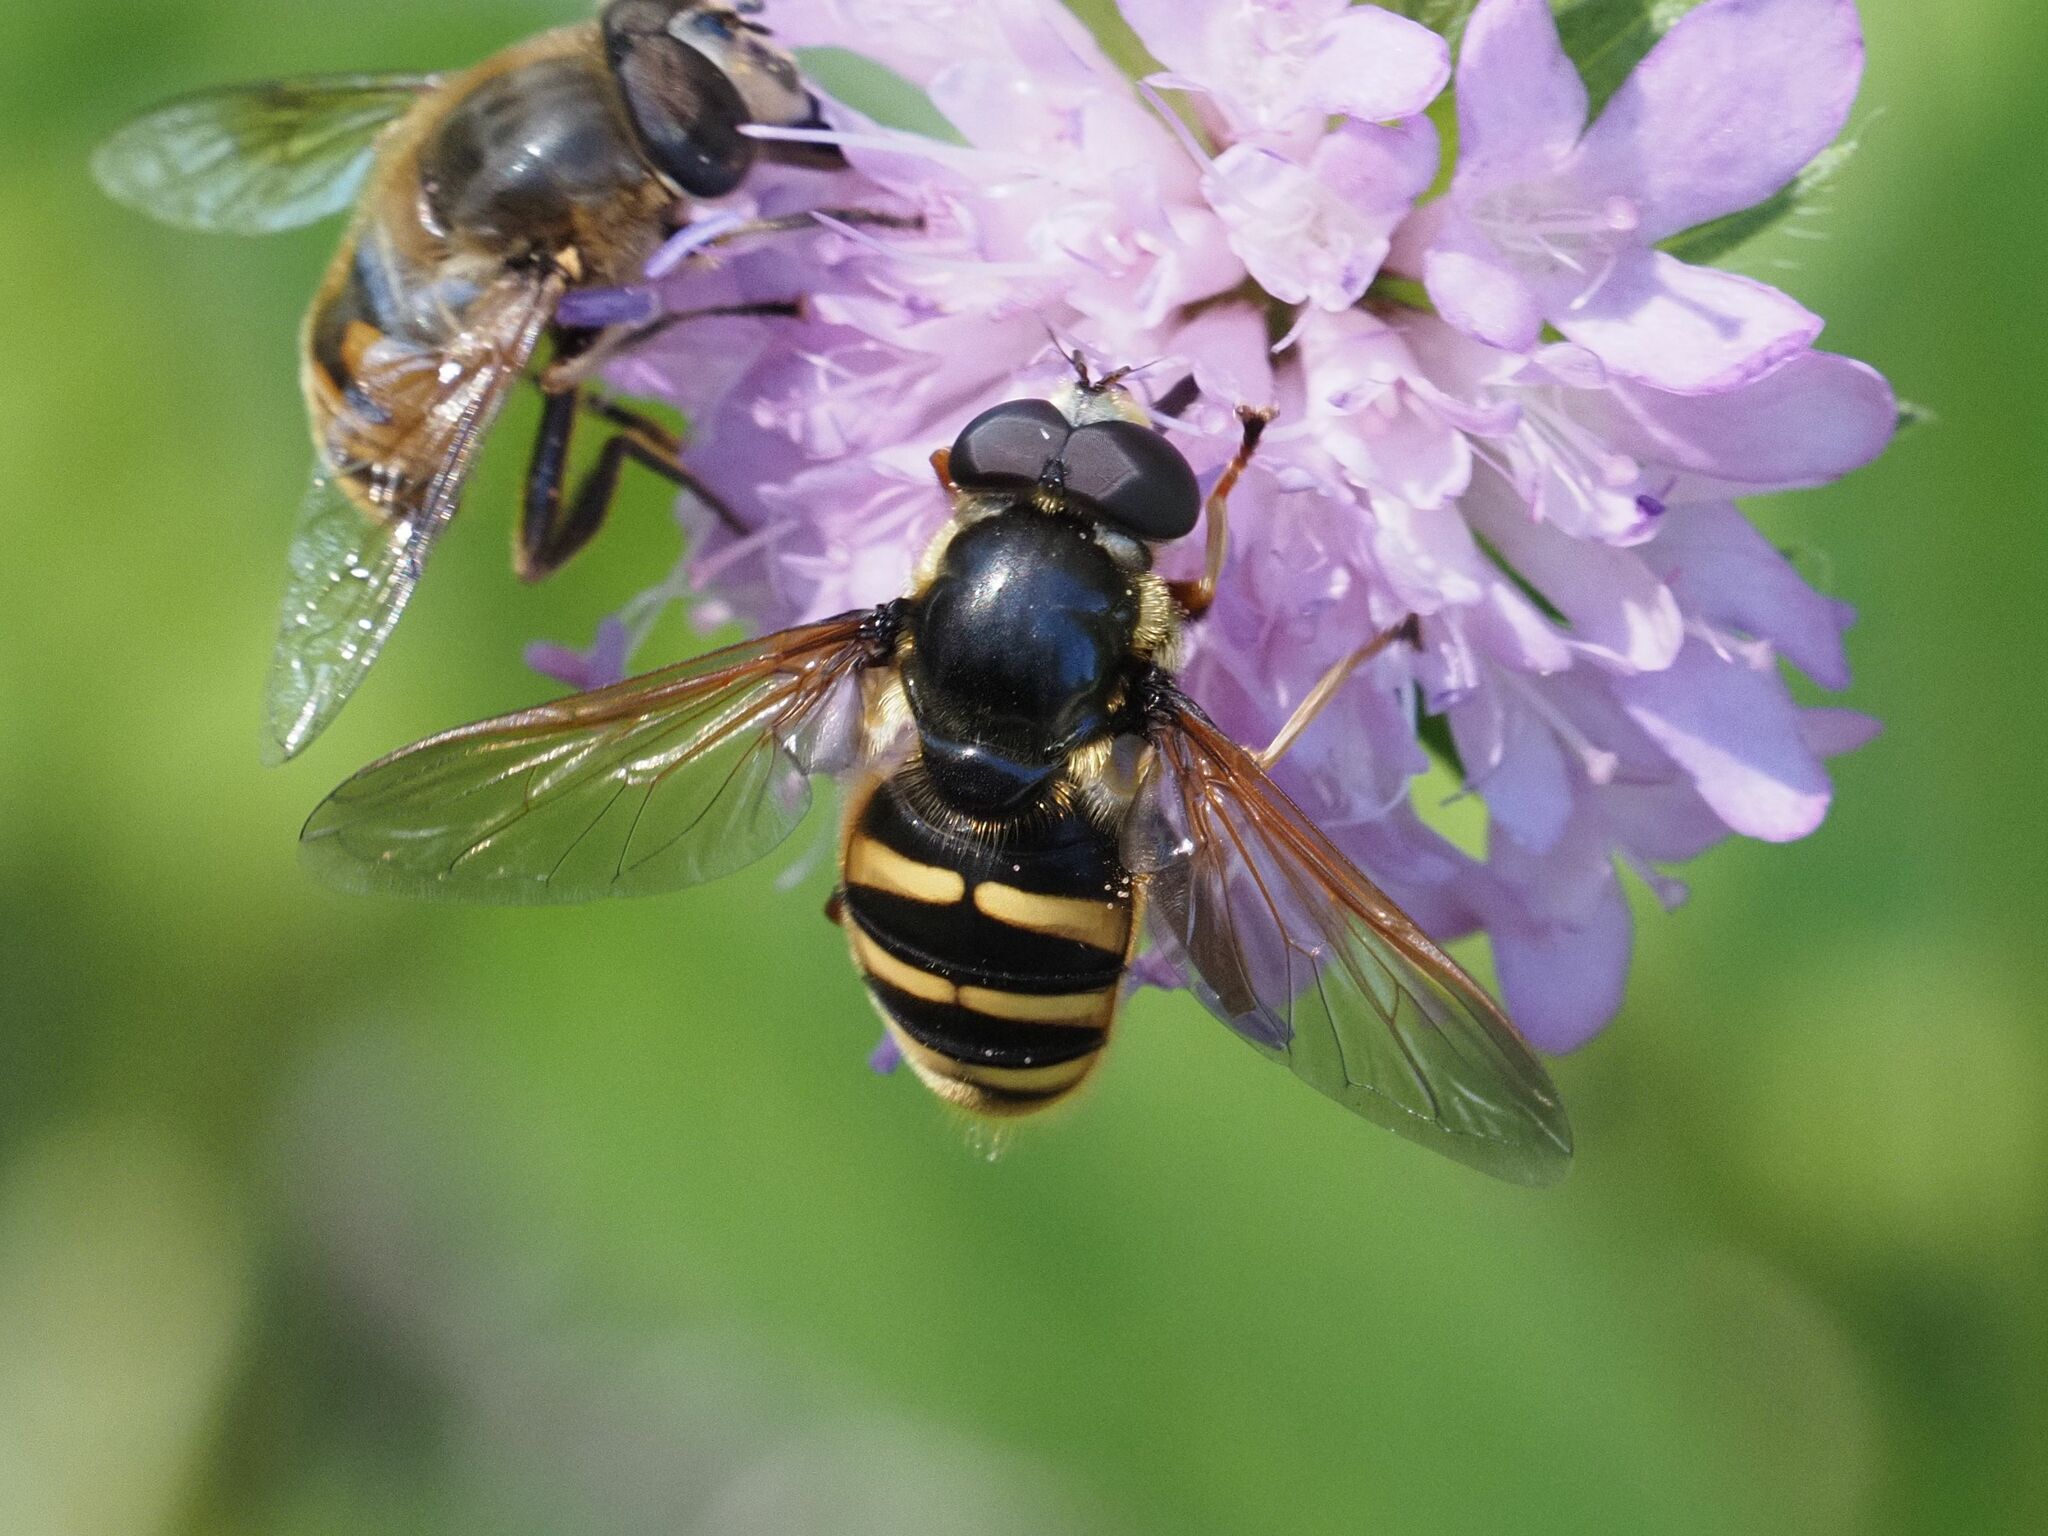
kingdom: Animalia
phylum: Arthropoda
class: Insecta
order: Diptera
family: Syrphidae
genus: Sericomyia
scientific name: Sericomyia silentis
